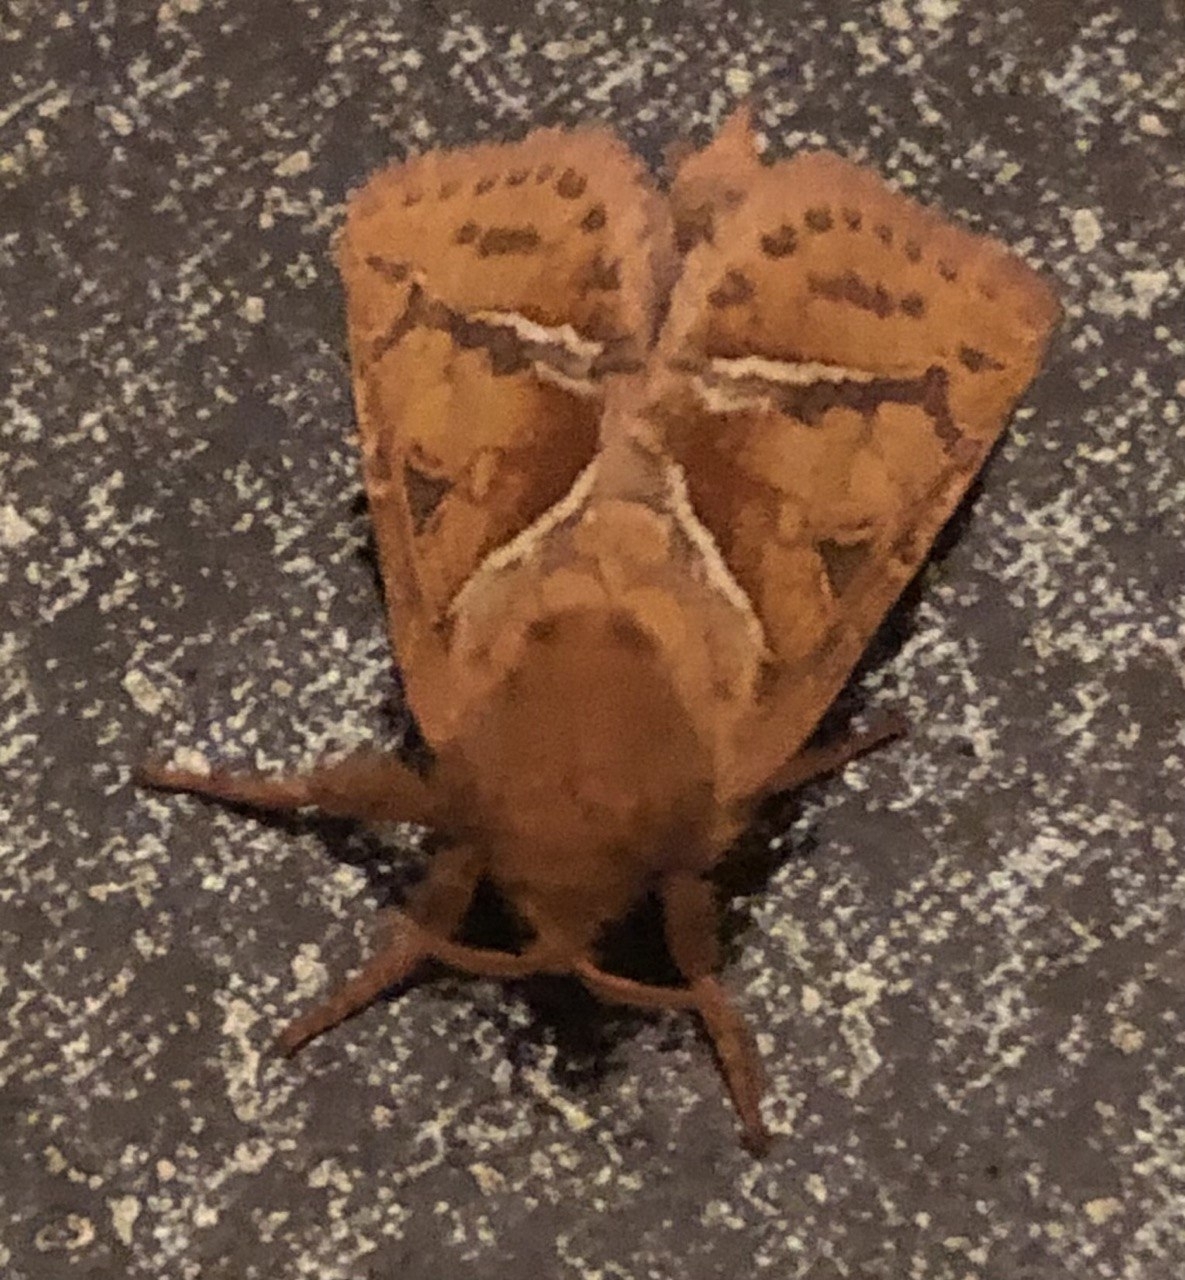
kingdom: Animalia
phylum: Arthropoda
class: Insecta
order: Lepidoptera
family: Hepialidae
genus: Triodia
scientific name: Triodia sylvina
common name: Orange swift
